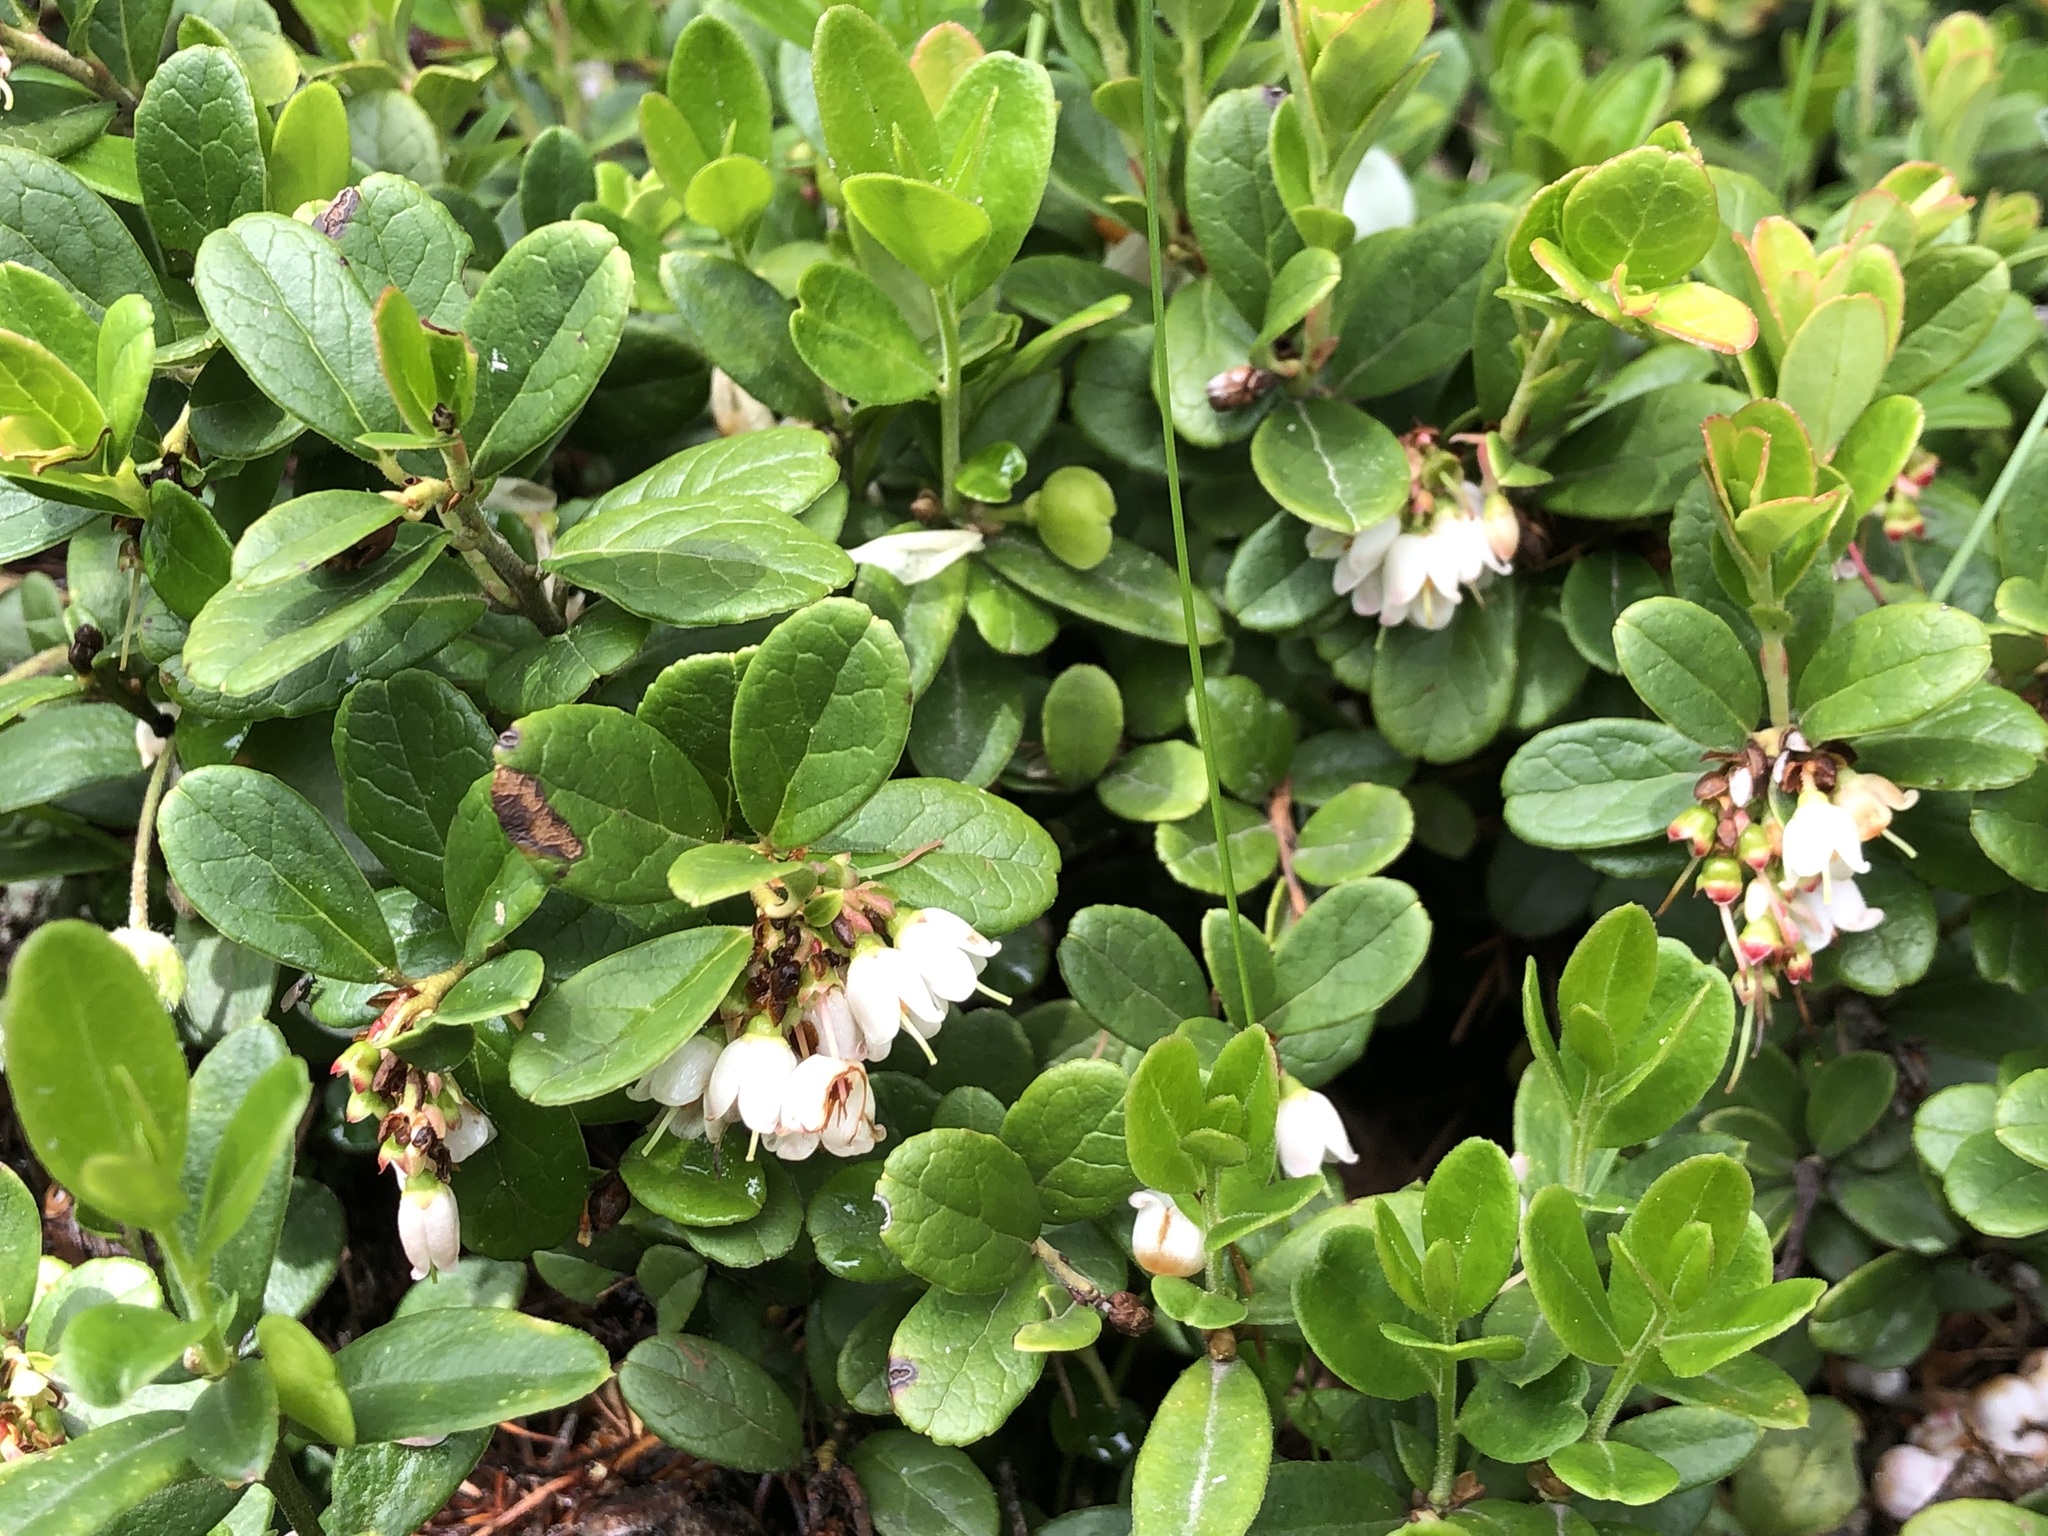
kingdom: Plantae
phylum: Tracheophyta
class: Magnoliopsida
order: Ericales
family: Ericaceae
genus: Vaccinium
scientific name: Vaccinium vitis-idaea
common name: Cowberry
